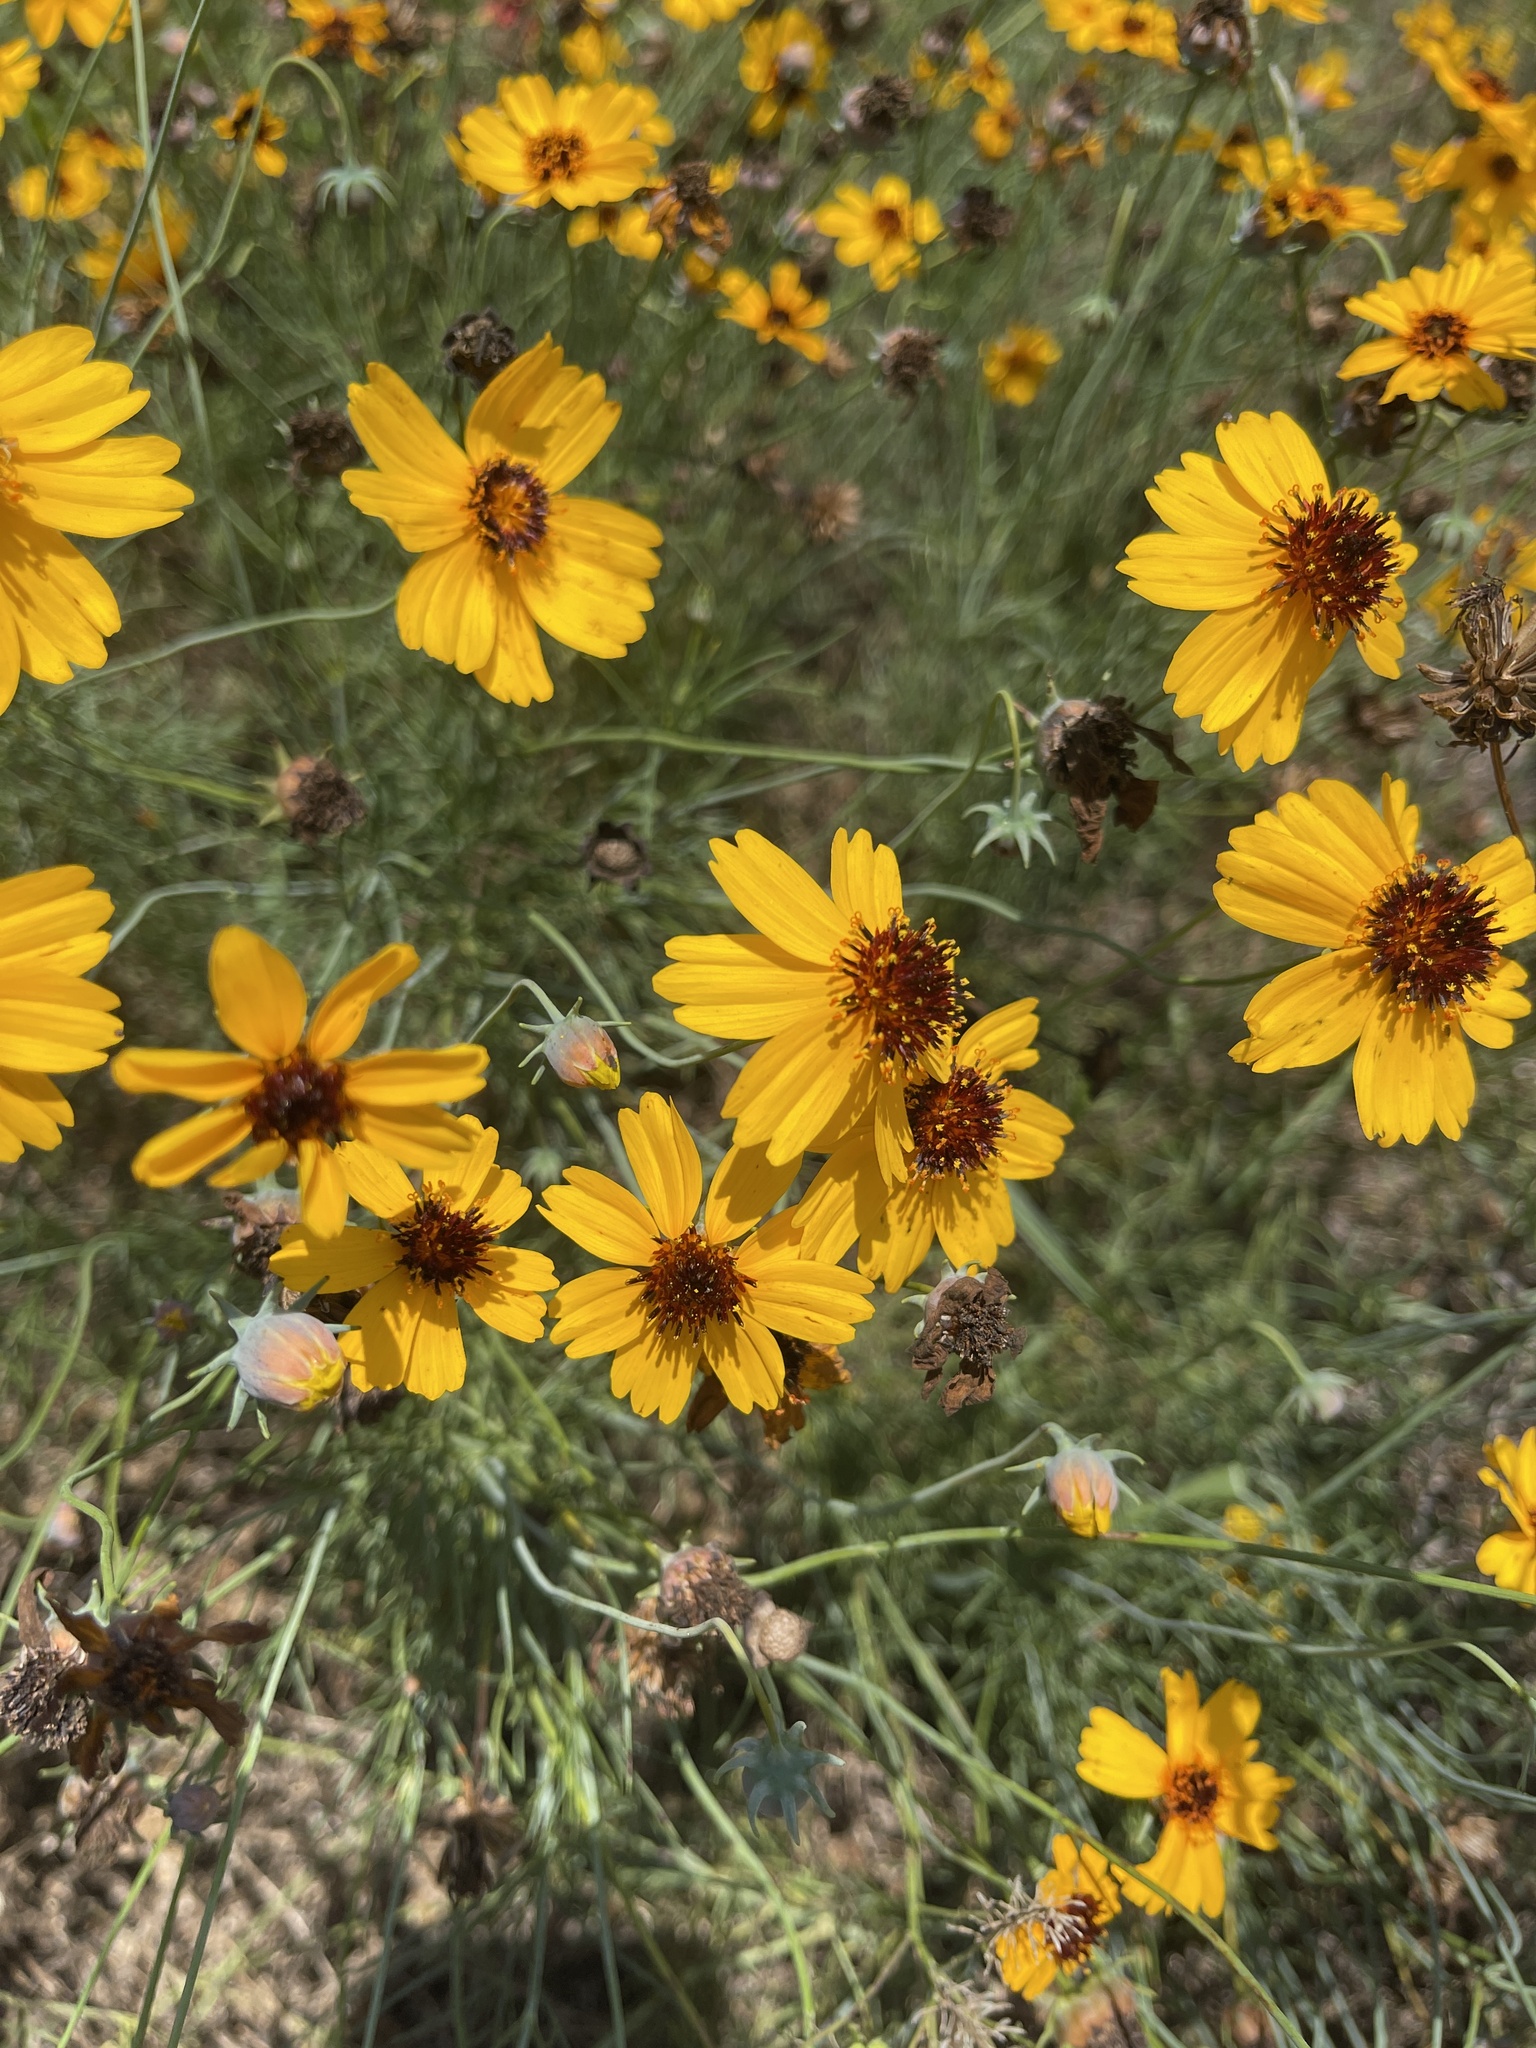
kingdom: Plantae
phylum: Tracheophyta
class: Magnoliopsida
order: Asterales
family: Asteraceae
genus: Thelesperma
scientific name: Thelesperma filifolium
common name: Stiff greenthread
